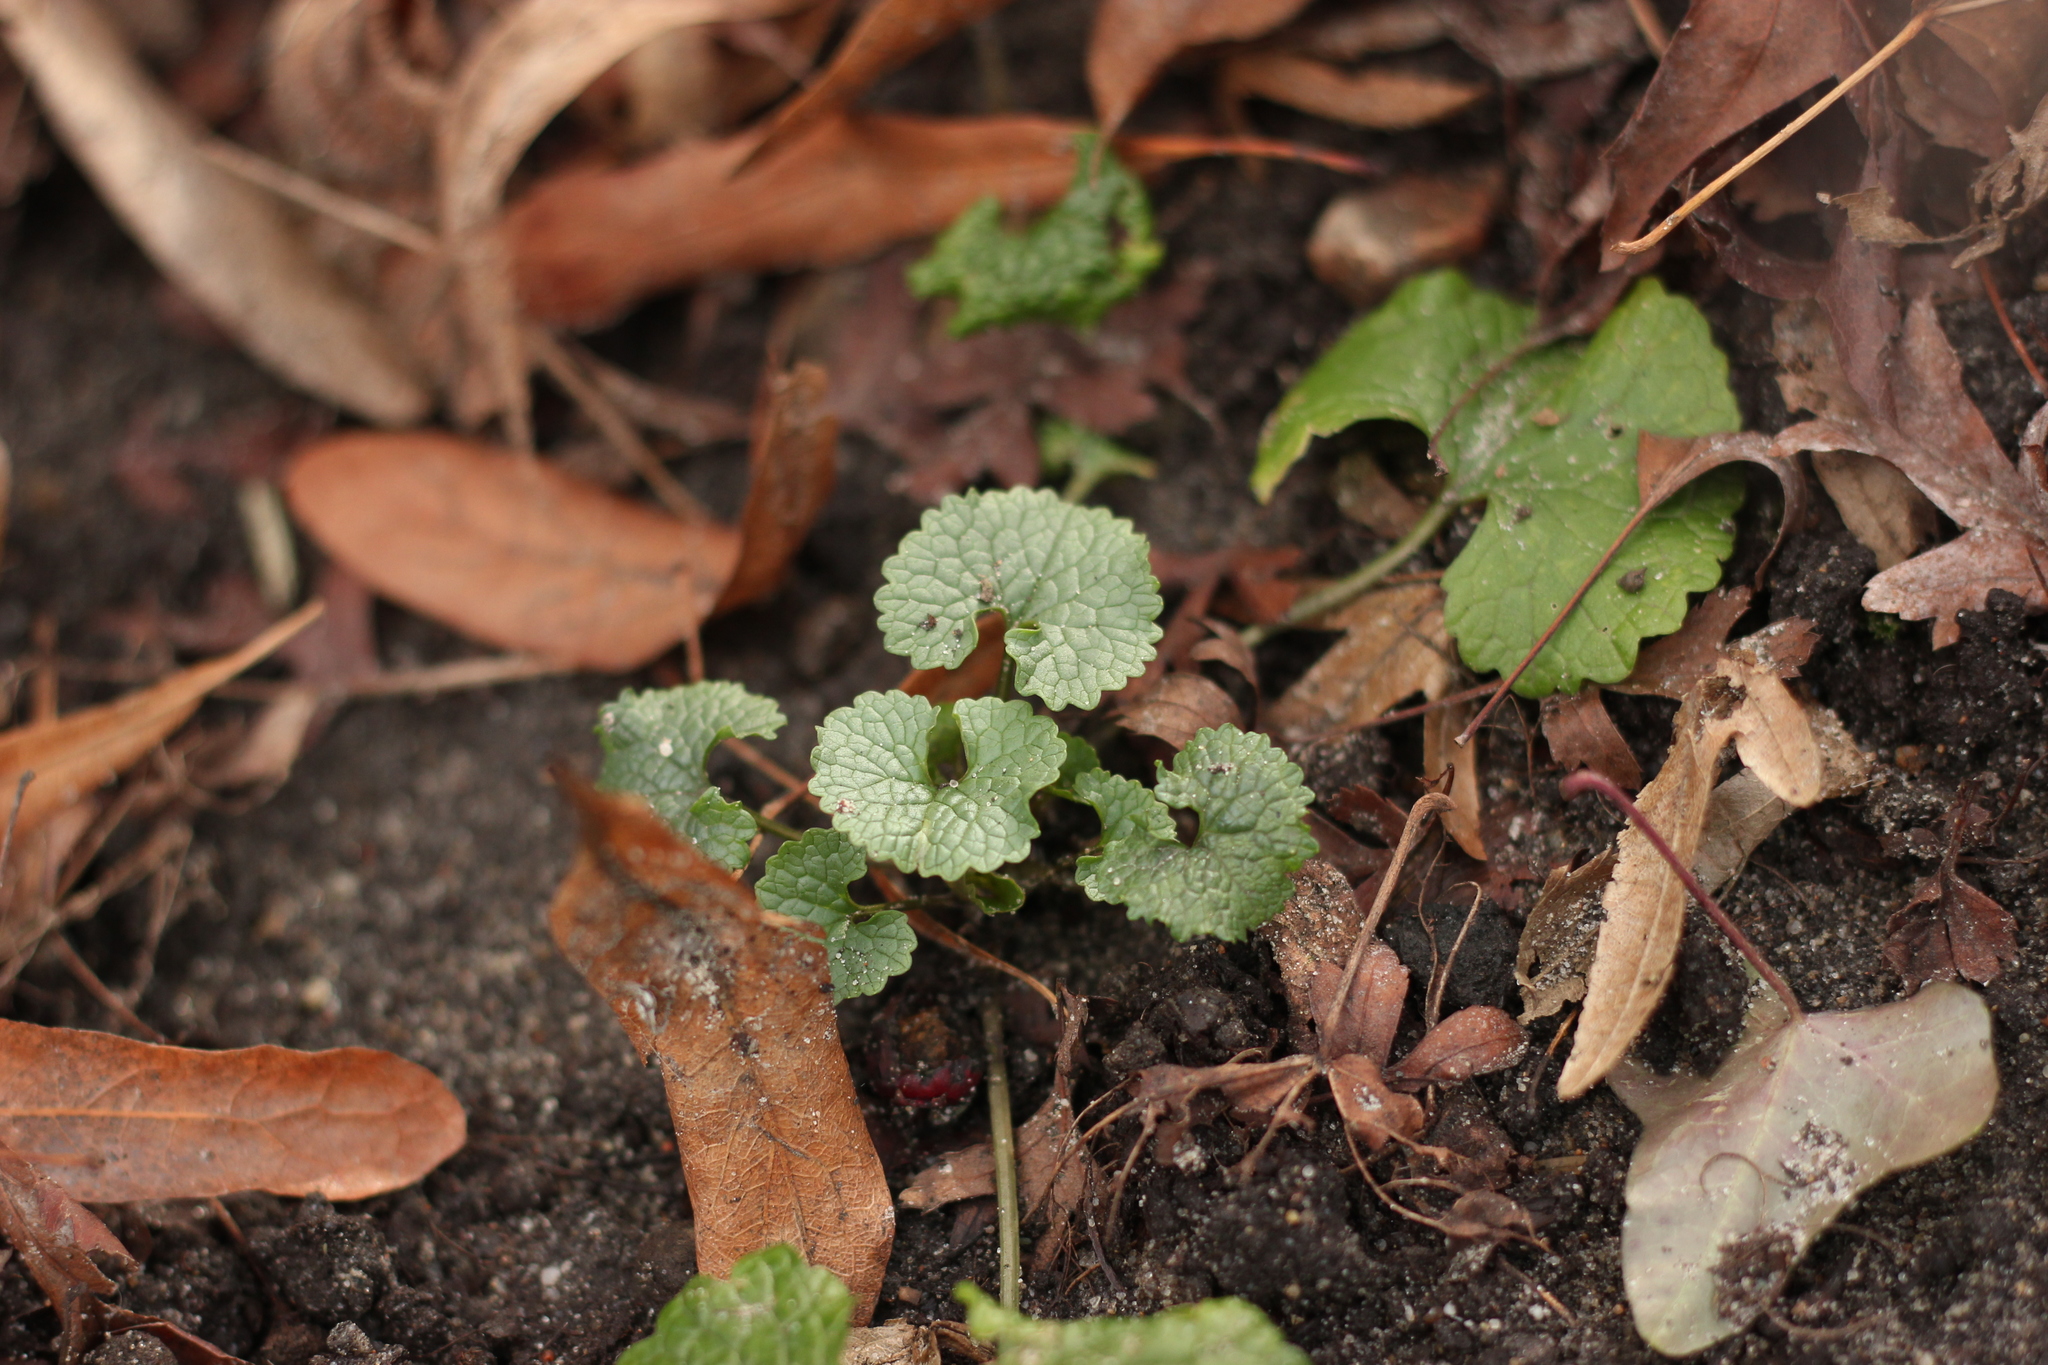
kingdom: Plantae
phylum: Tracheophyta
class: Magnoliopsida
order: Brassicales
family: Brassicaceae
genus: Alliaria
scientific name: Alliaria petiolata
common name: Garlic mustard
